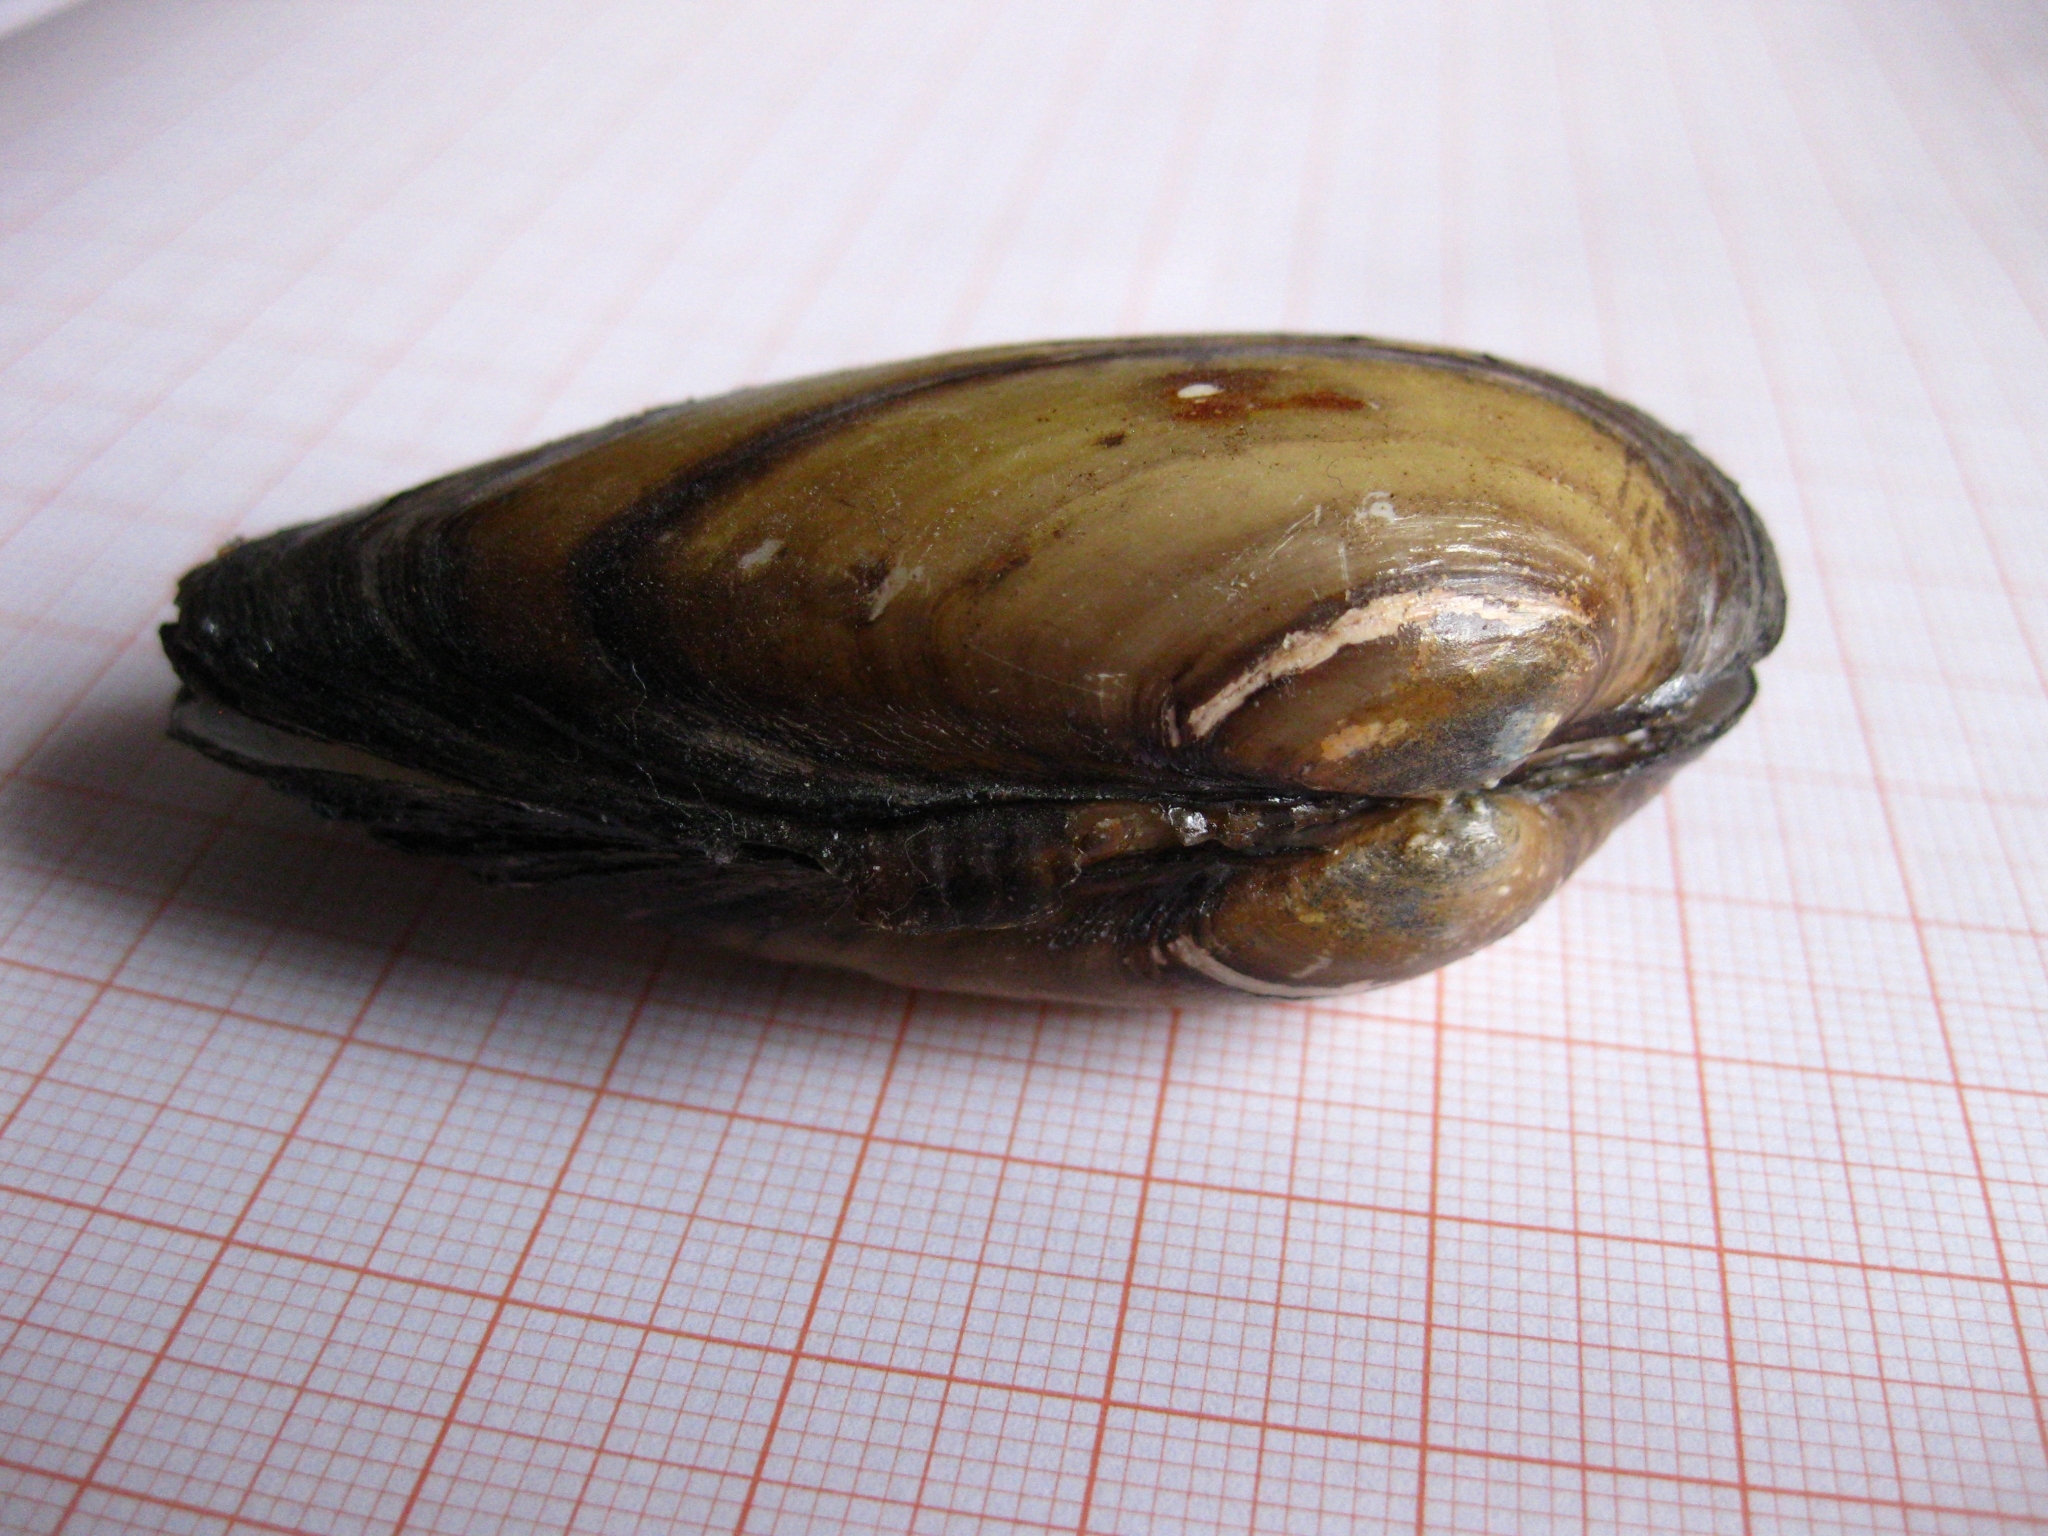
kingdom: Animalia
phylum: Mollusca
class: Bivalvia
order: Unionida
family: Unionidae
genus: Unio
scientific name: Unio
